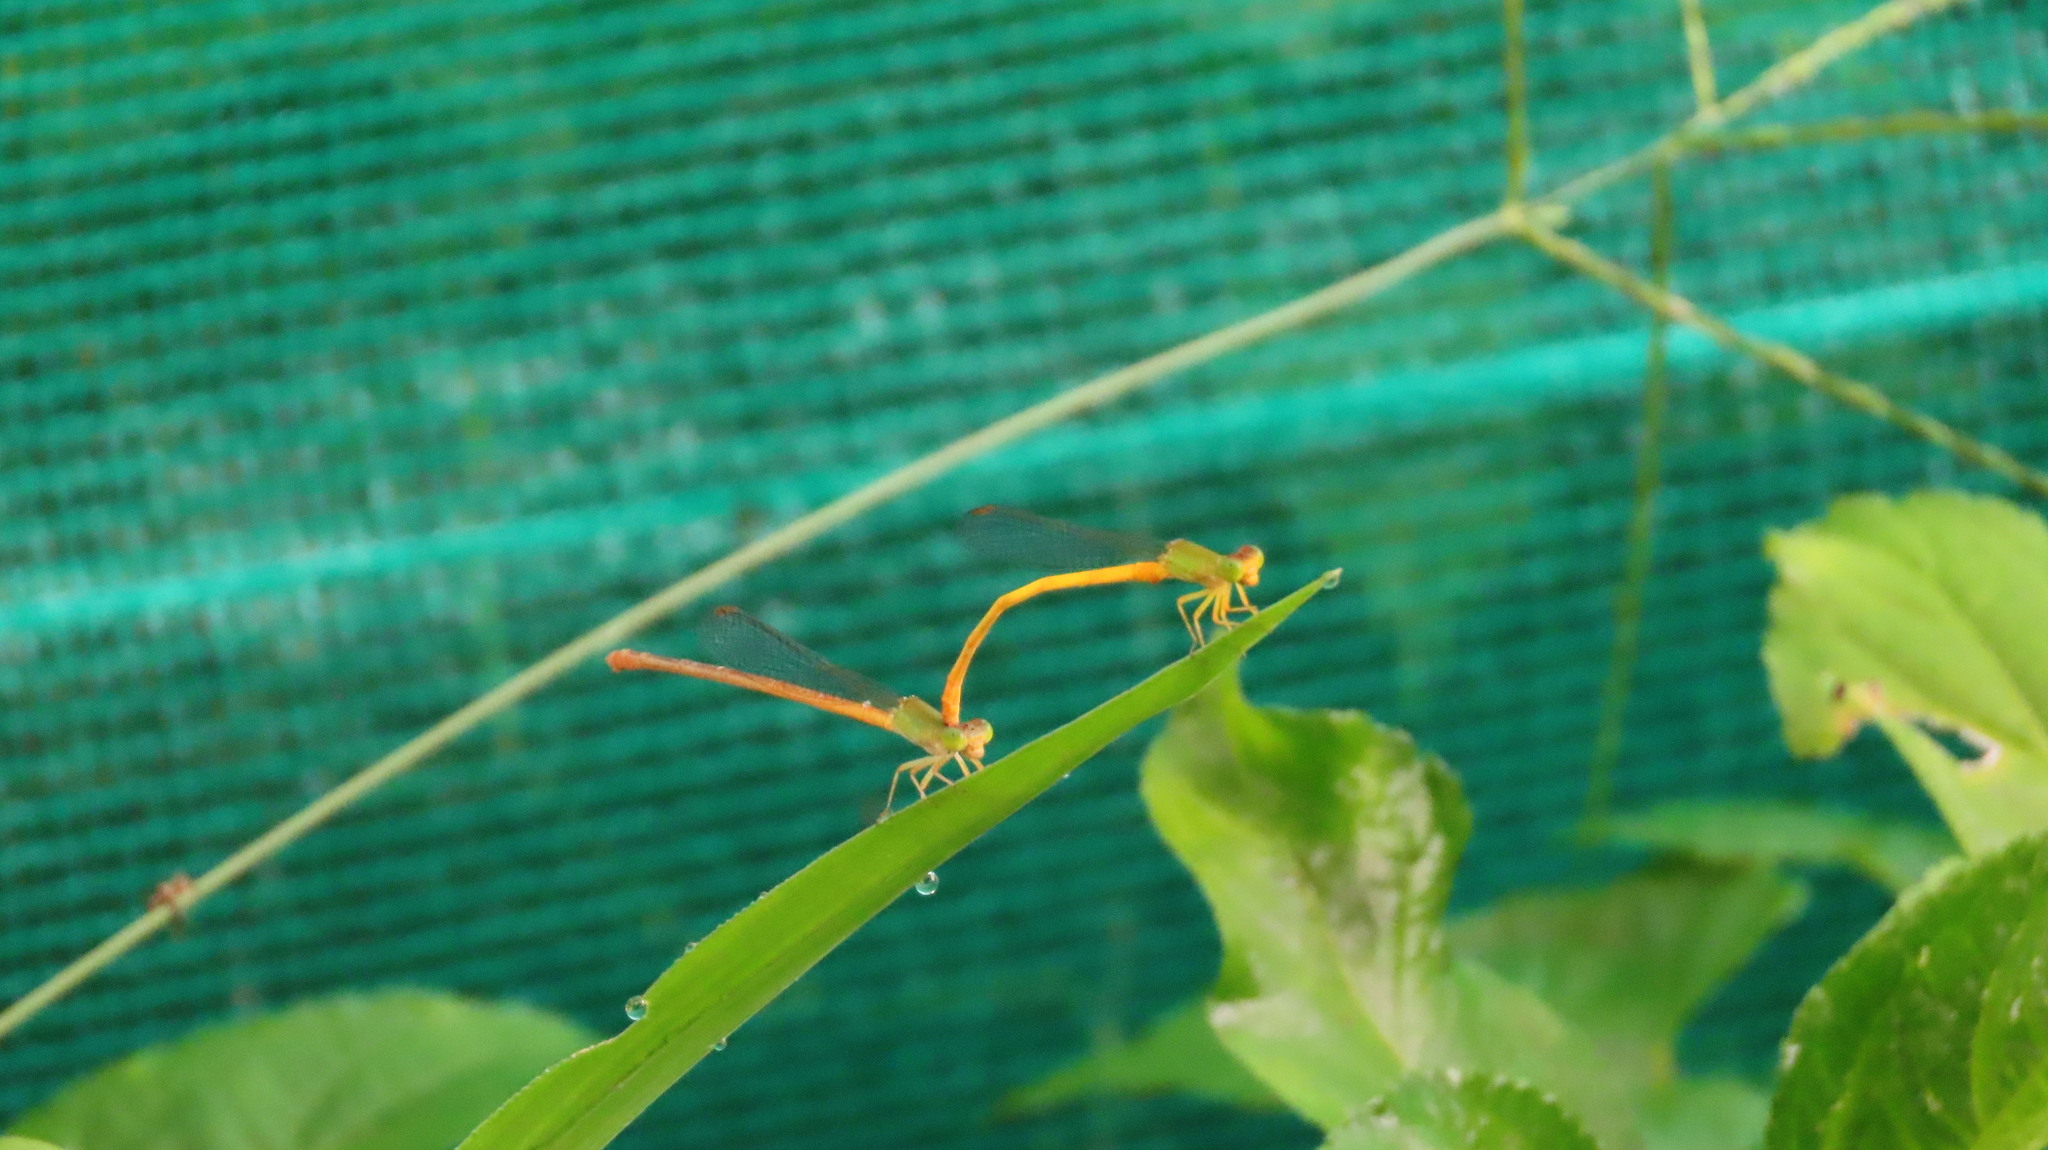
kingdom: Animalia
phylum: Arthropoda
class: Insecta
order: Odonata
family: Coenagrionidae
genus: Ceriagrion
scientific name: Ceriagrion coromandelianum
